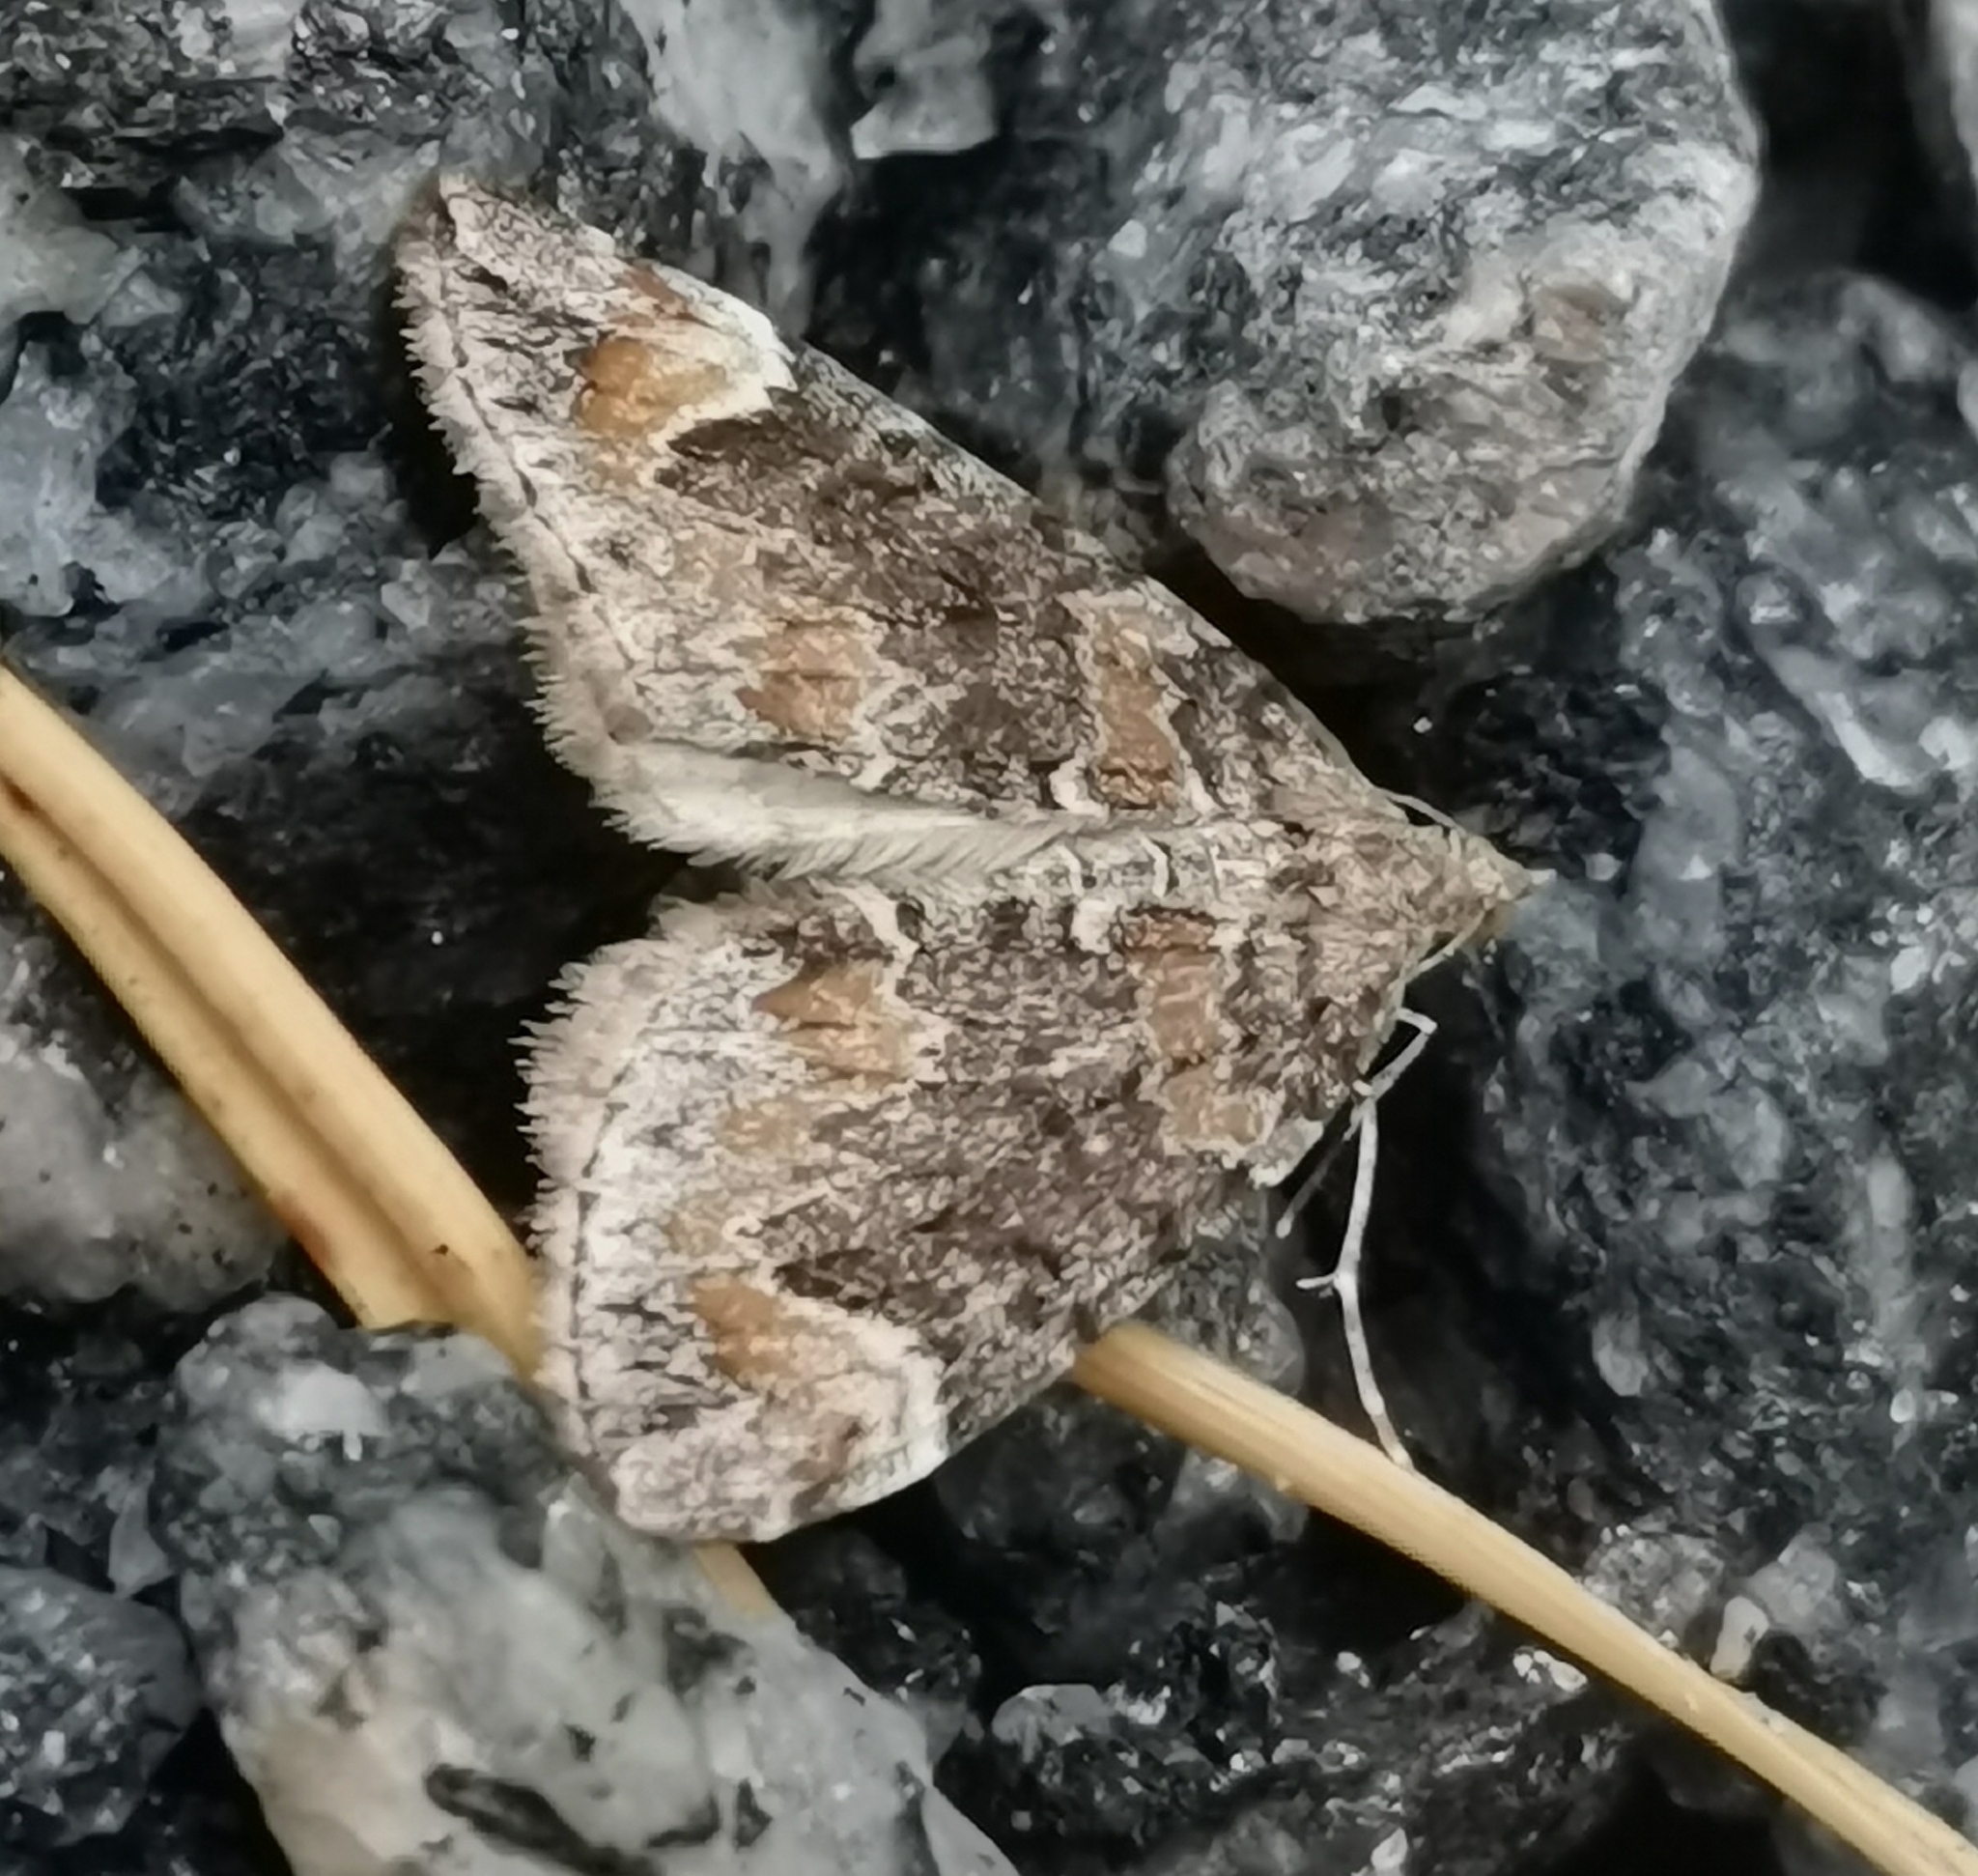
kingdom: Animalia
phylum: Arthropoda
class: Insecta
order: Lepidoptera
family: Geometridae
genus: Dysstroma
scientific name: Dysstroma citrata
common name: Dark marbled carpet
